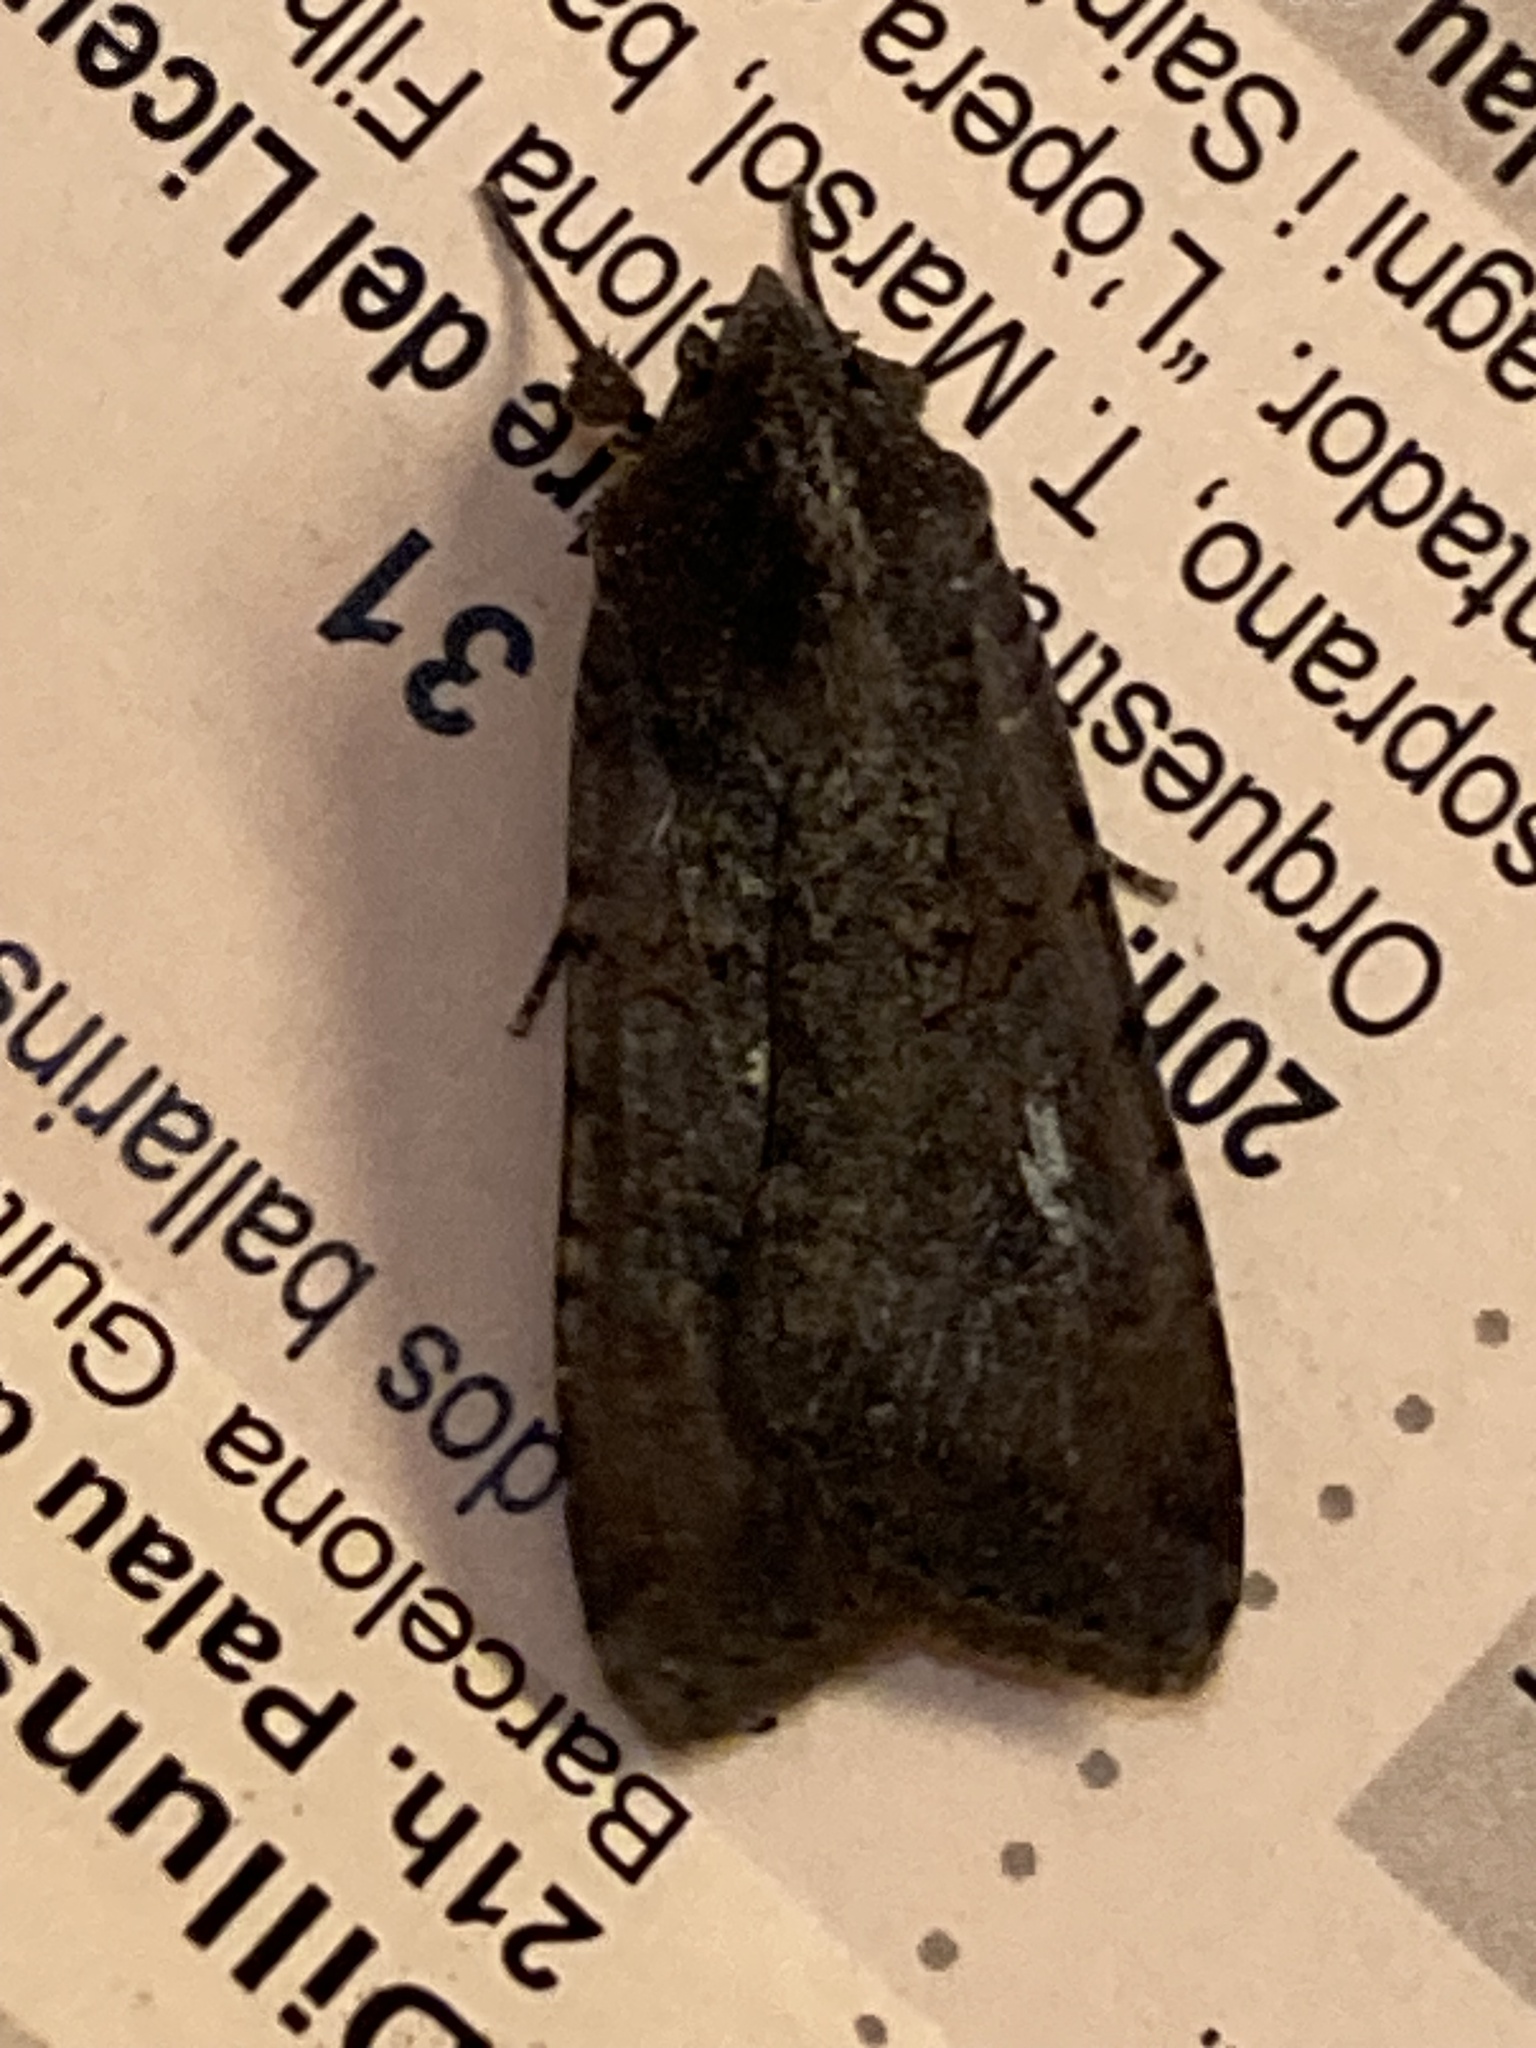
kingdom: Animalia
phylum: Arthropoda
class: Insecta
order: Lepidoptera
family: Noctuidae
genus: Peridroma
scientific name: Peridroma saucia
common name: Pearly underwing
